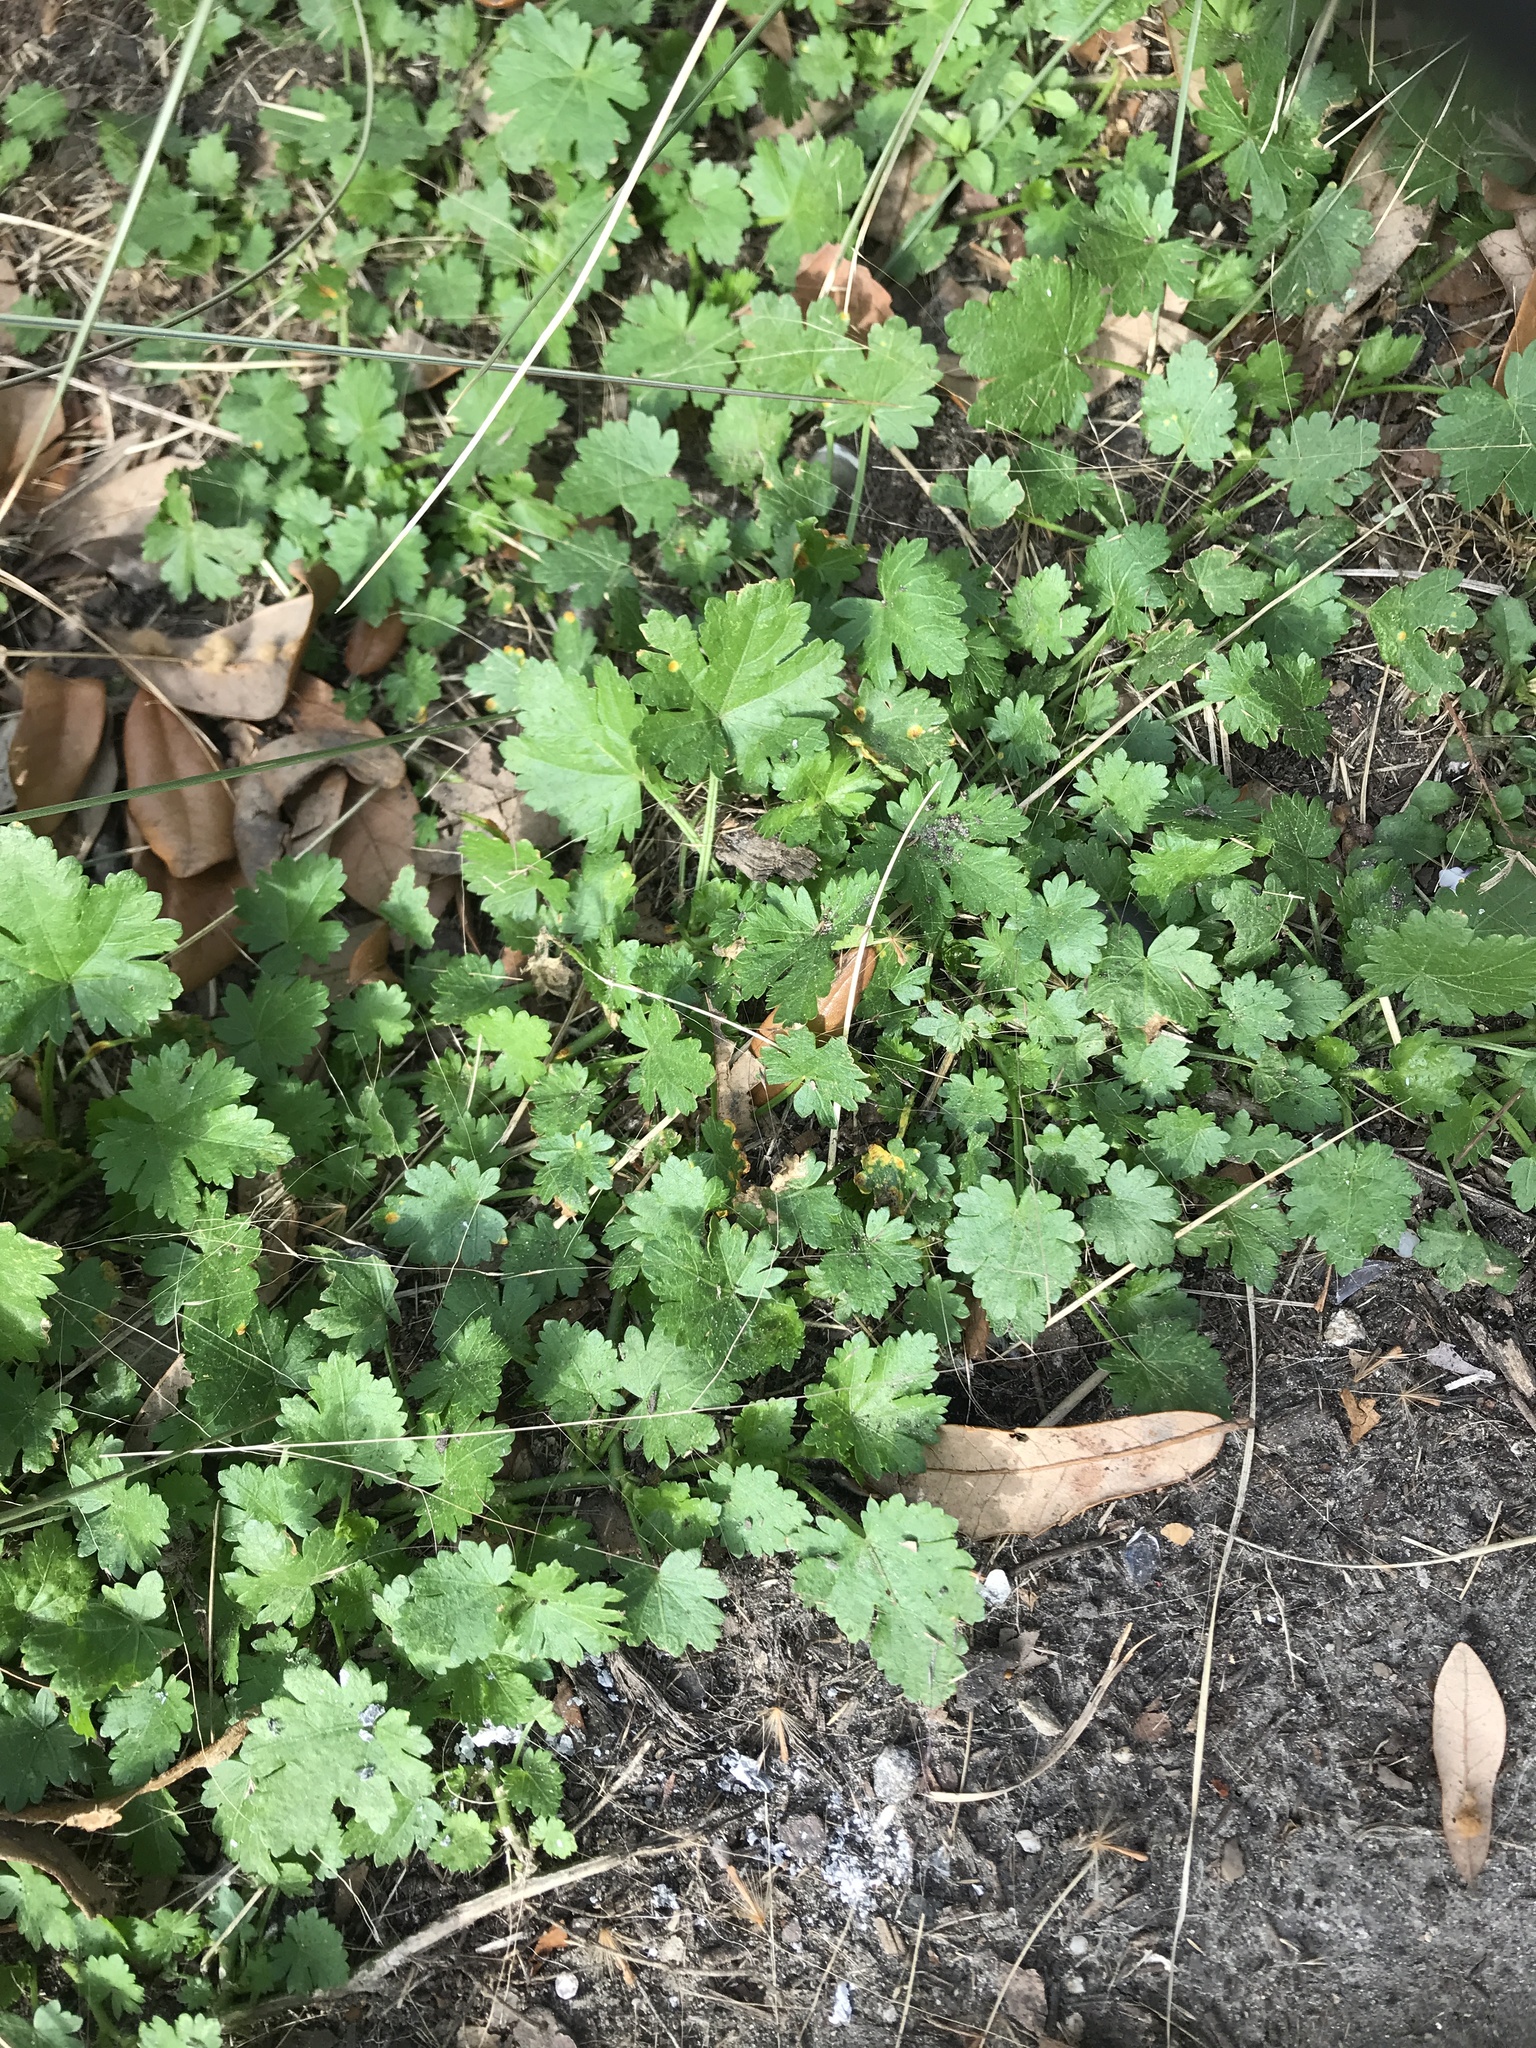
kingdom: Plantae
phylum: Tracheophyta
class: Magnoliopsida
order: Malvales
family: Malvaceae
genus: Modiola
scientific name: Modiola caroliniana
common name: Carolina bristlemallow
